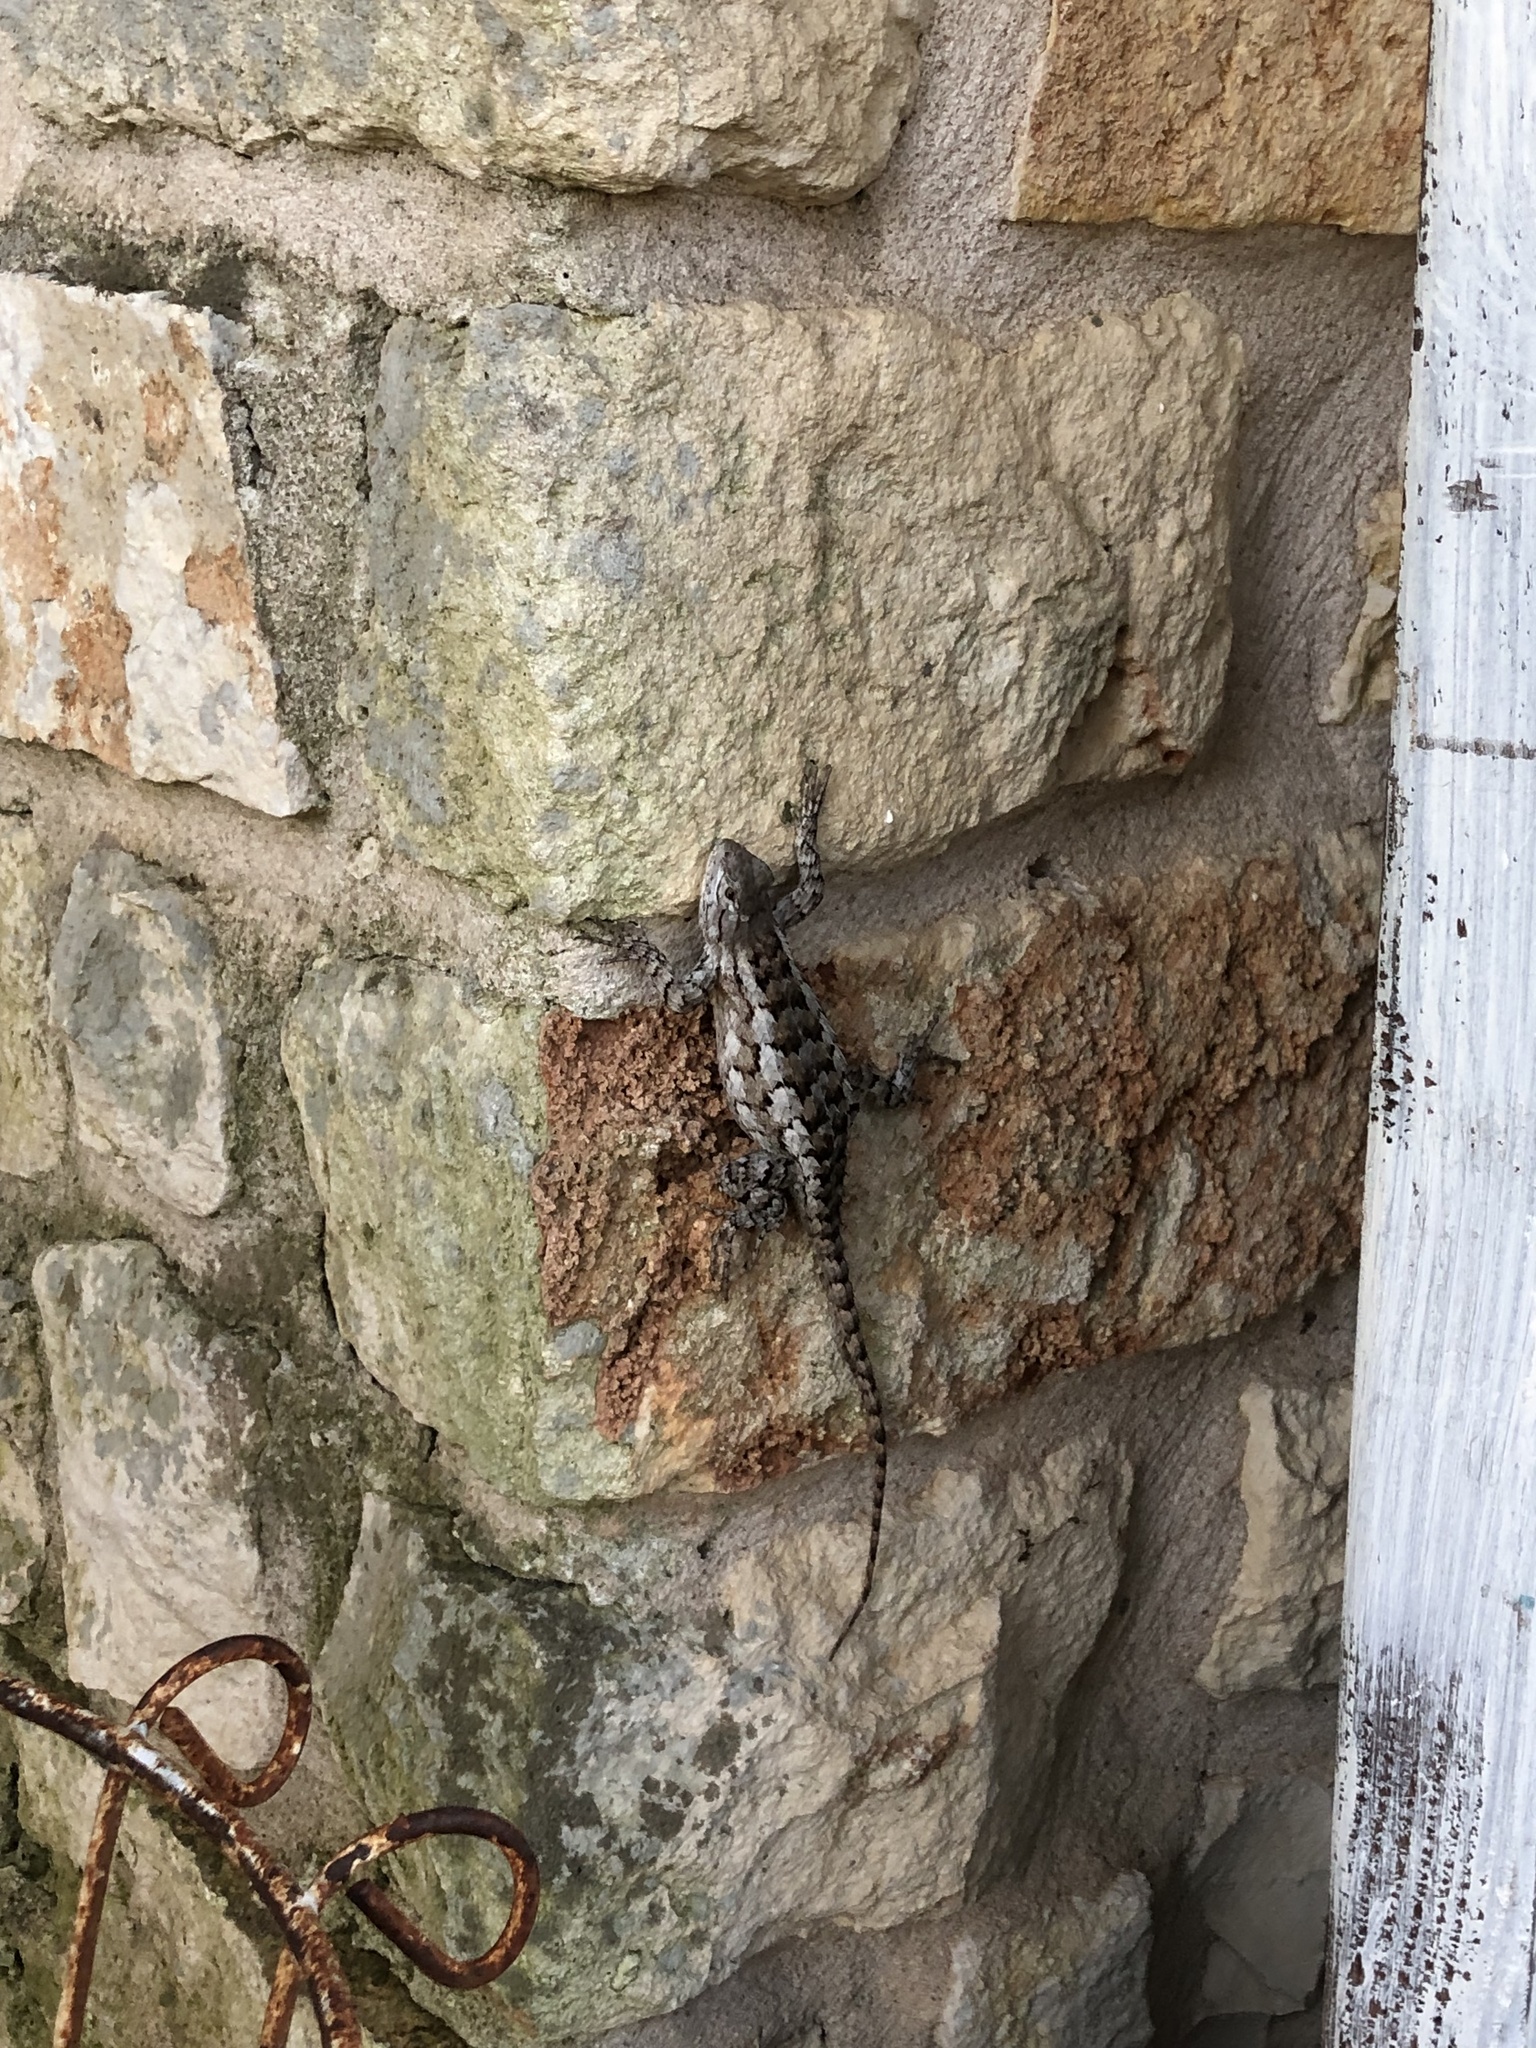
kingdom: Animalia
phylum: Chordata
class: Squamata
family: Phrynosomatidae
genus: Sceloporus
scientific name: Sceloporus olivaceus
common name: Texas spiny lizard
